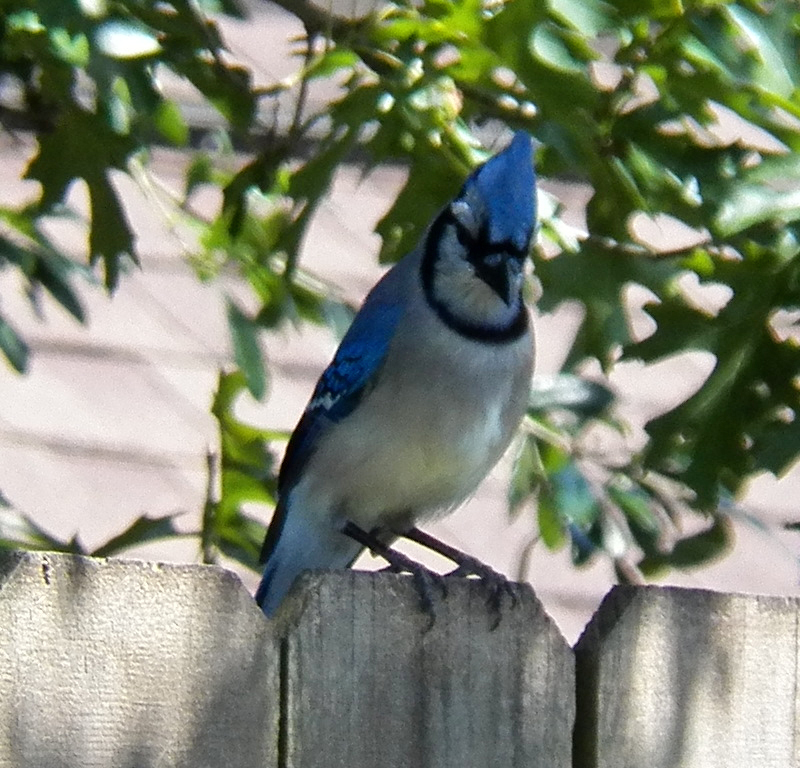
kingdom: Animalia
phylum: Chordata
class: Aves
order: Passeriformes
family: Corvidae
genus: Cyanocitta
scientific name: Cyanocitta cristata
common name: Blue jay
